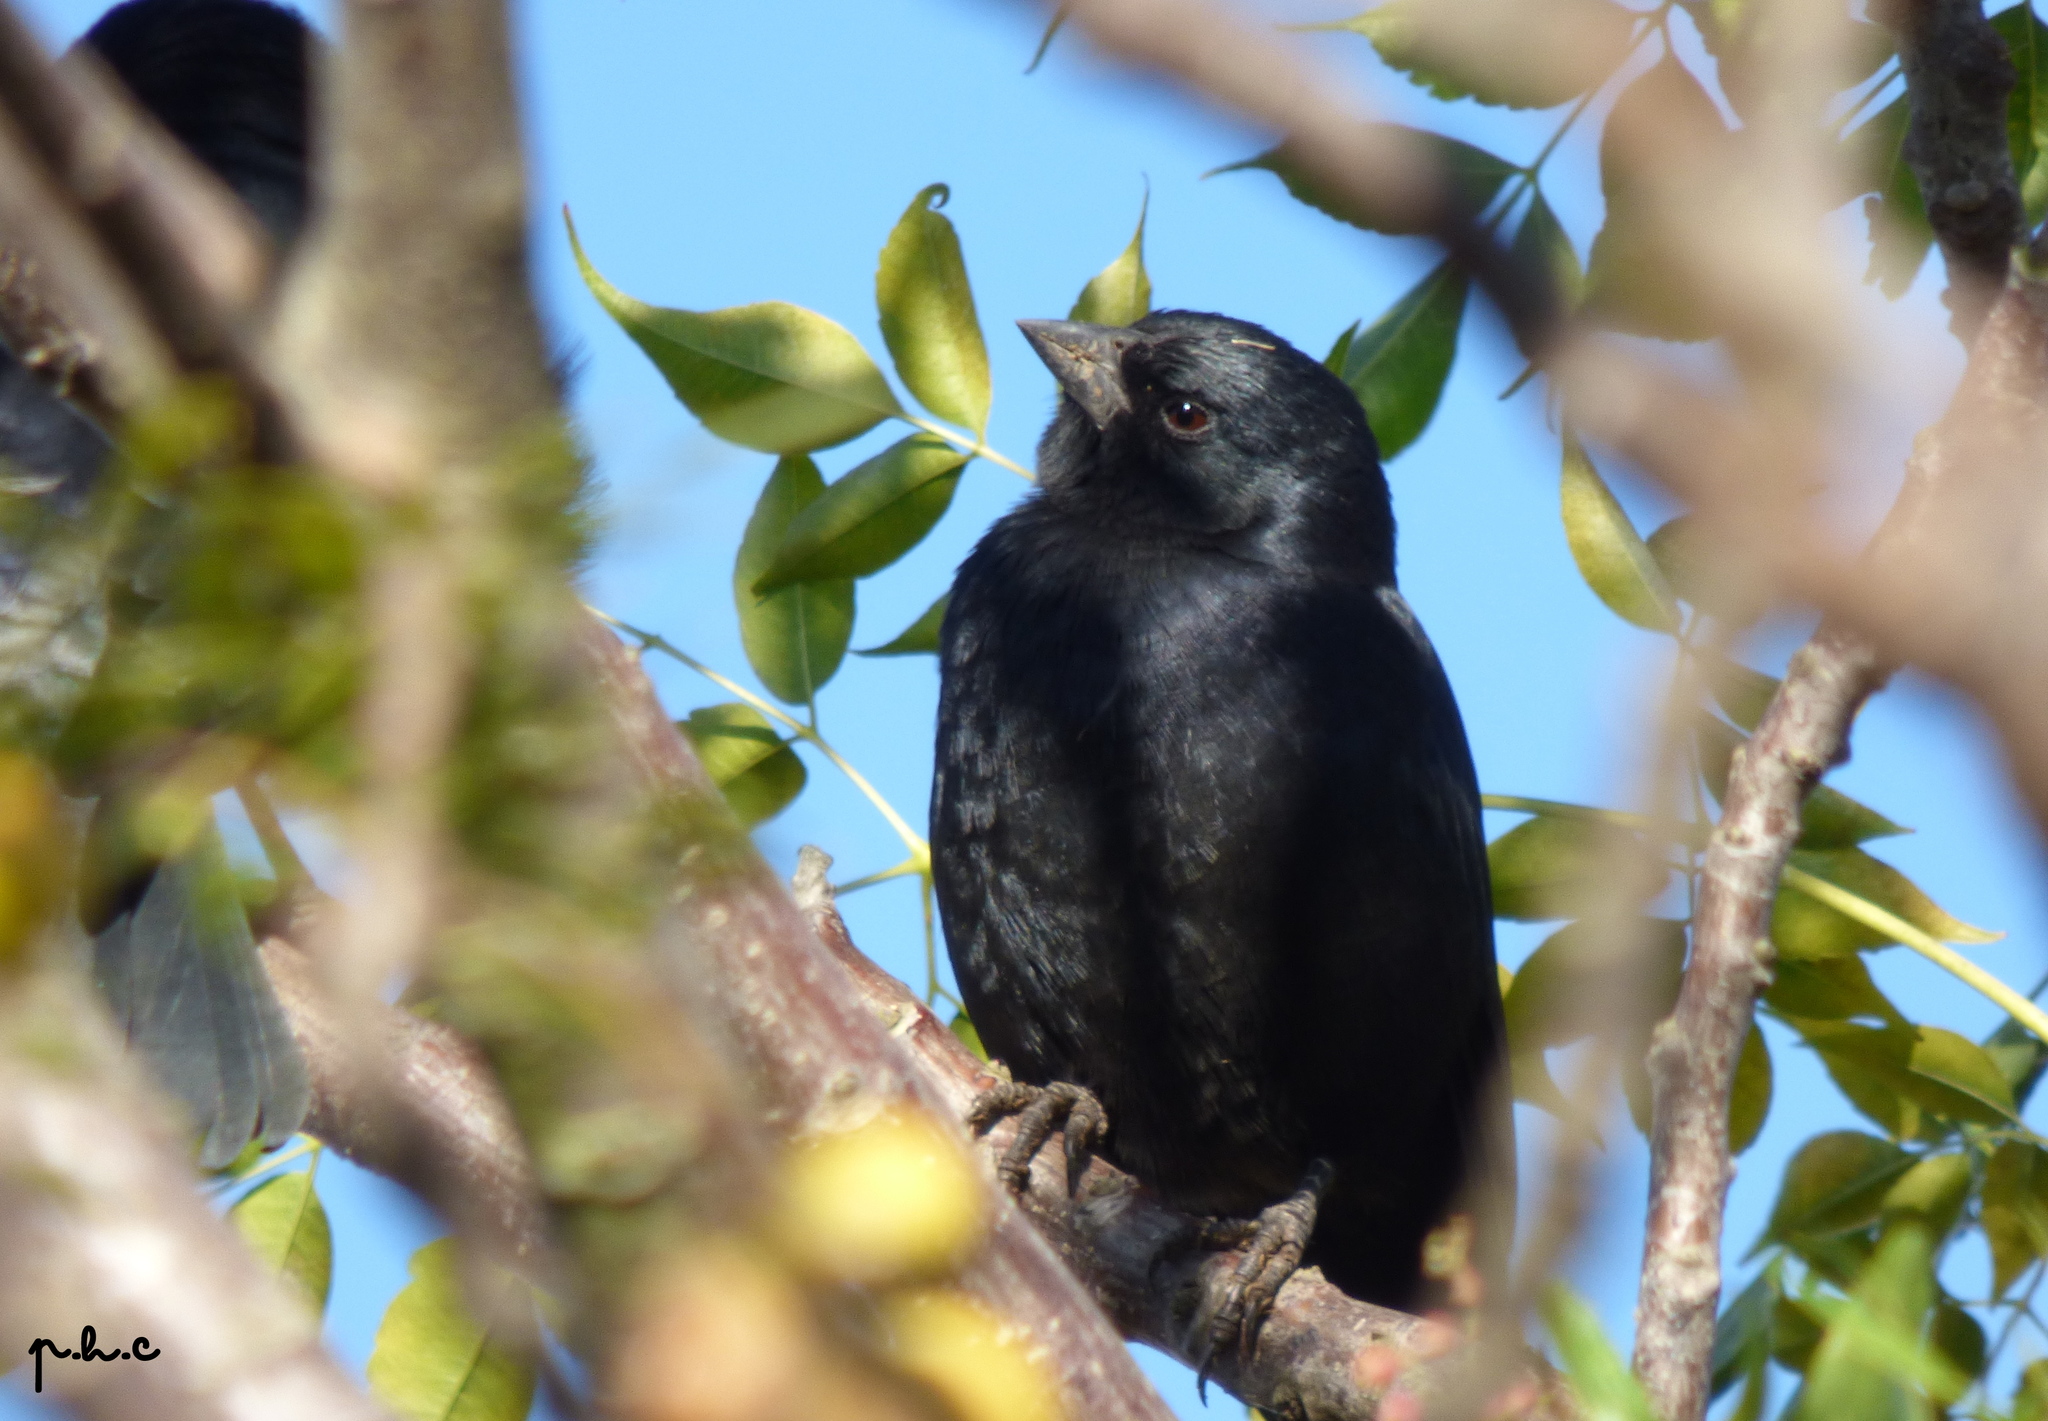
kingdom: Animalia
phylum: Chordata
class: Aves
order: Passeriformes
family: Icteridae
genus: Molothrus
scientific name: Molothrus rufoaxillaris
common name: Screaming cowbird
